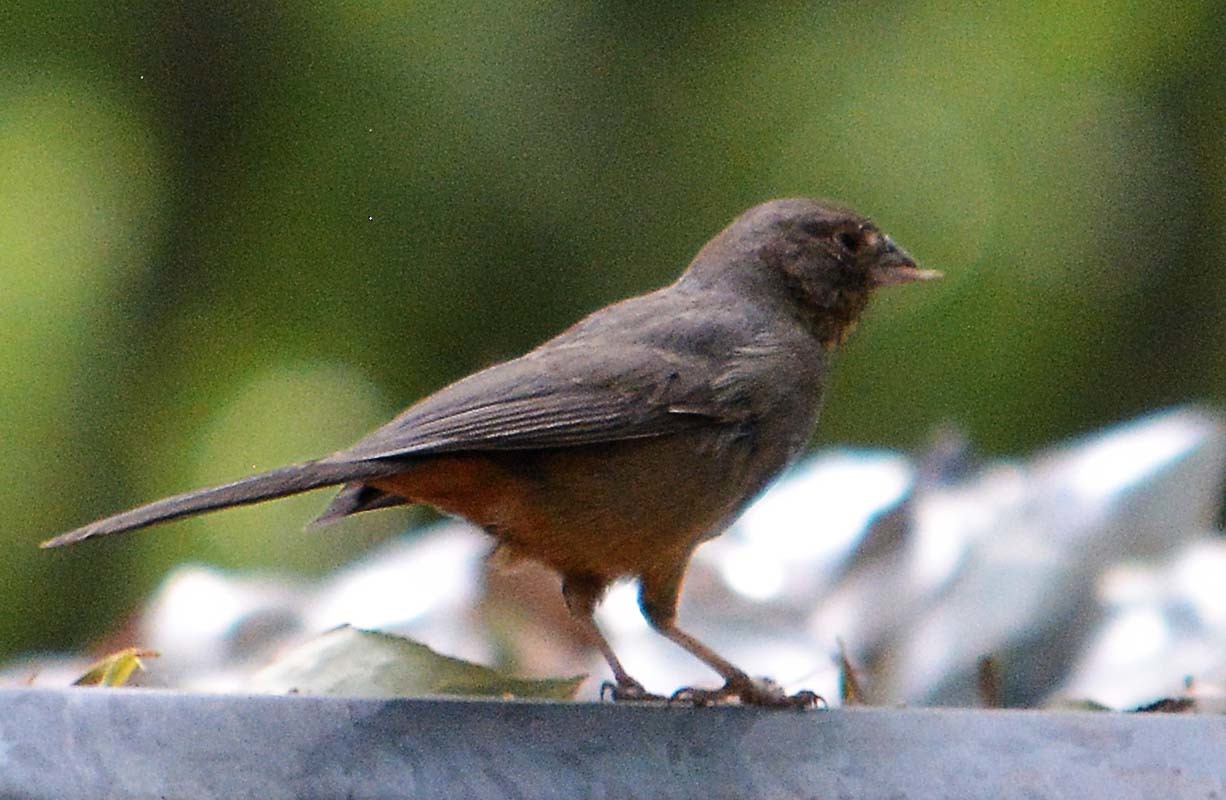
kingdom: Animalia
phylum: Chordata
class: Aves
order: Passeriformes
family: Passerellidae
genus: Melozone
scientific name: Melozone fusca
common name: Canyon towhee
